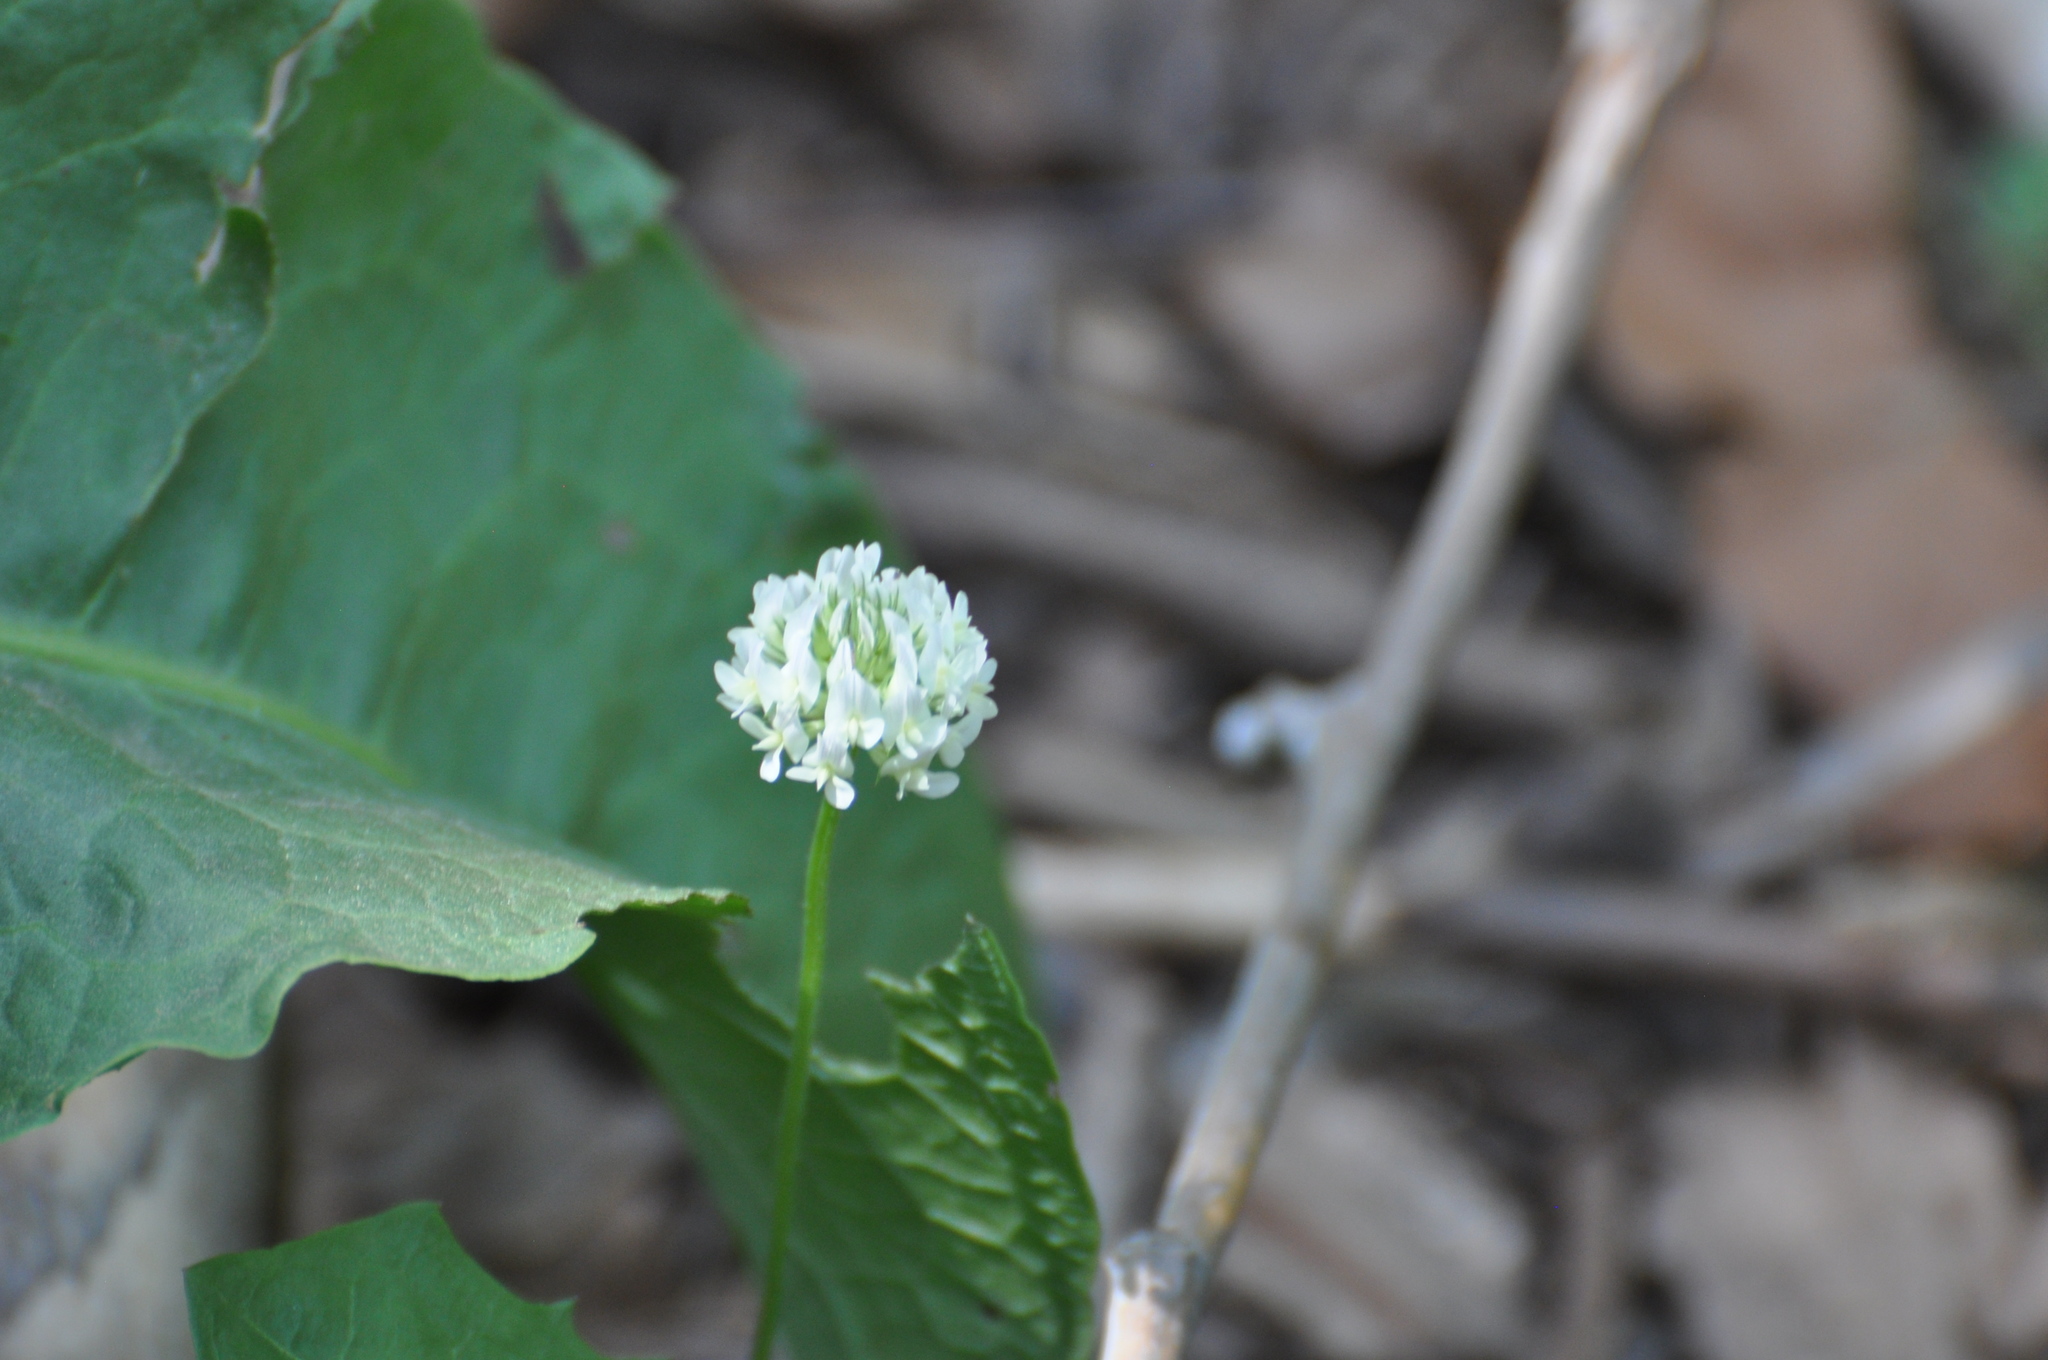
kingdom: Plantae
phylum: Tracheophyta
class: Magnoliopsida
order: Fabales
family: Fabaceae
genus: Trifolium
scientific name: Trifolium repens
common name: White clover
